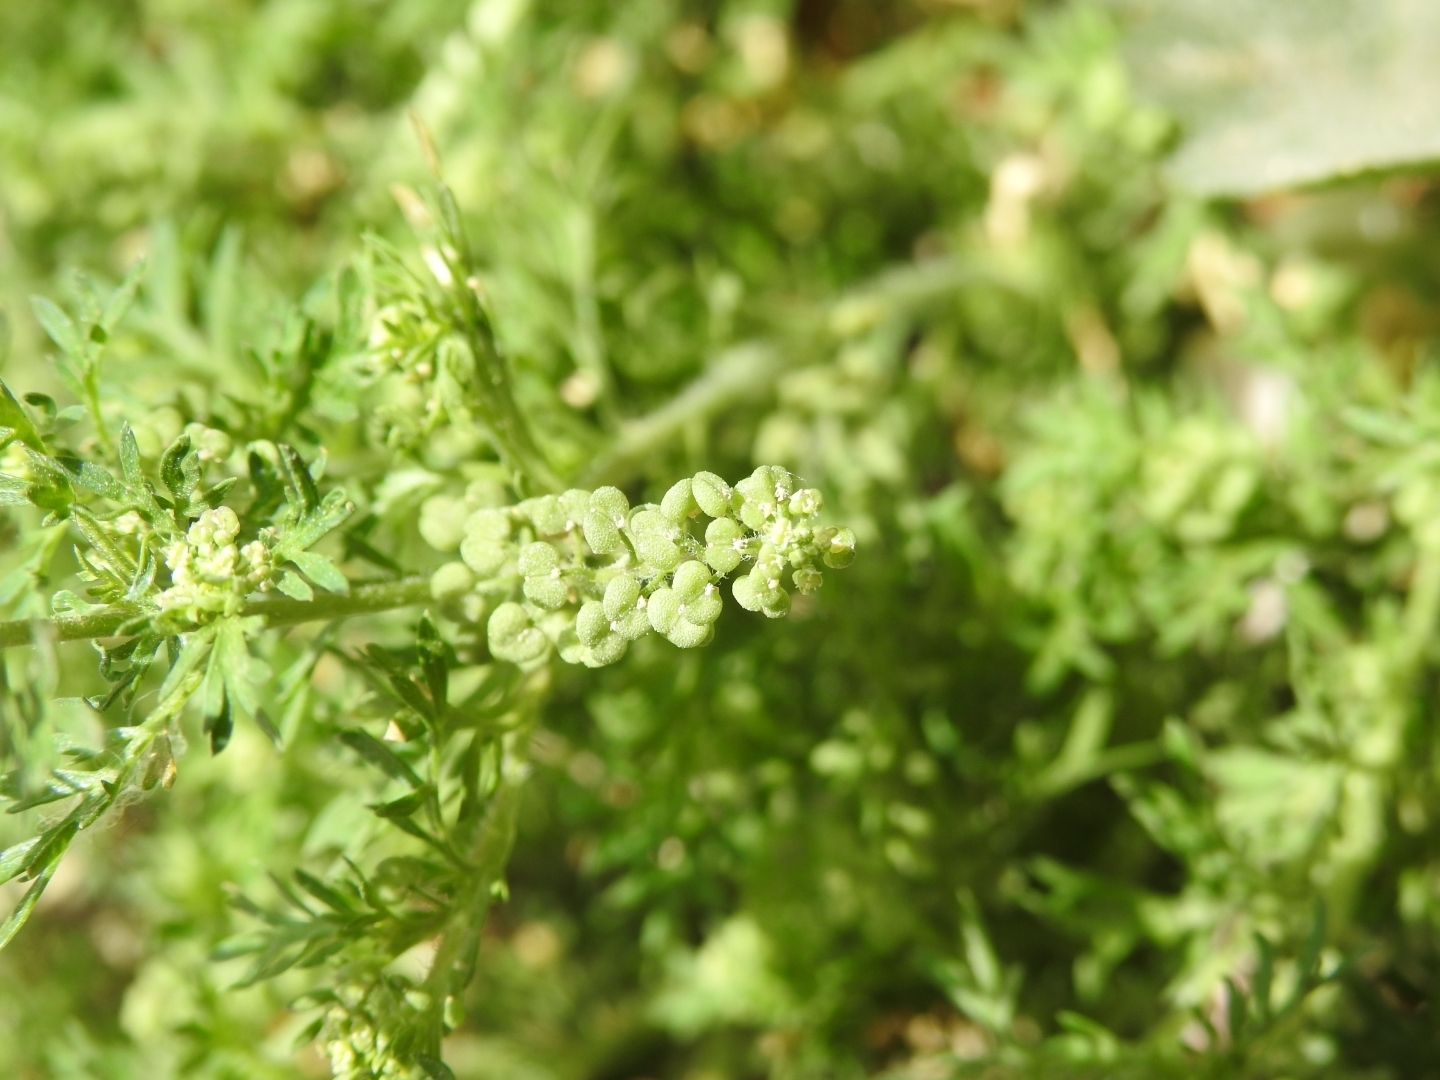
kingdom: Plantae
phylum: Tracheophyta
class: Magnoliopsida
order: Brassicales
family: Brassicaceae
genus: Lepidium
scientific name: Lepidium didymum
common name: Lesser swinecress
